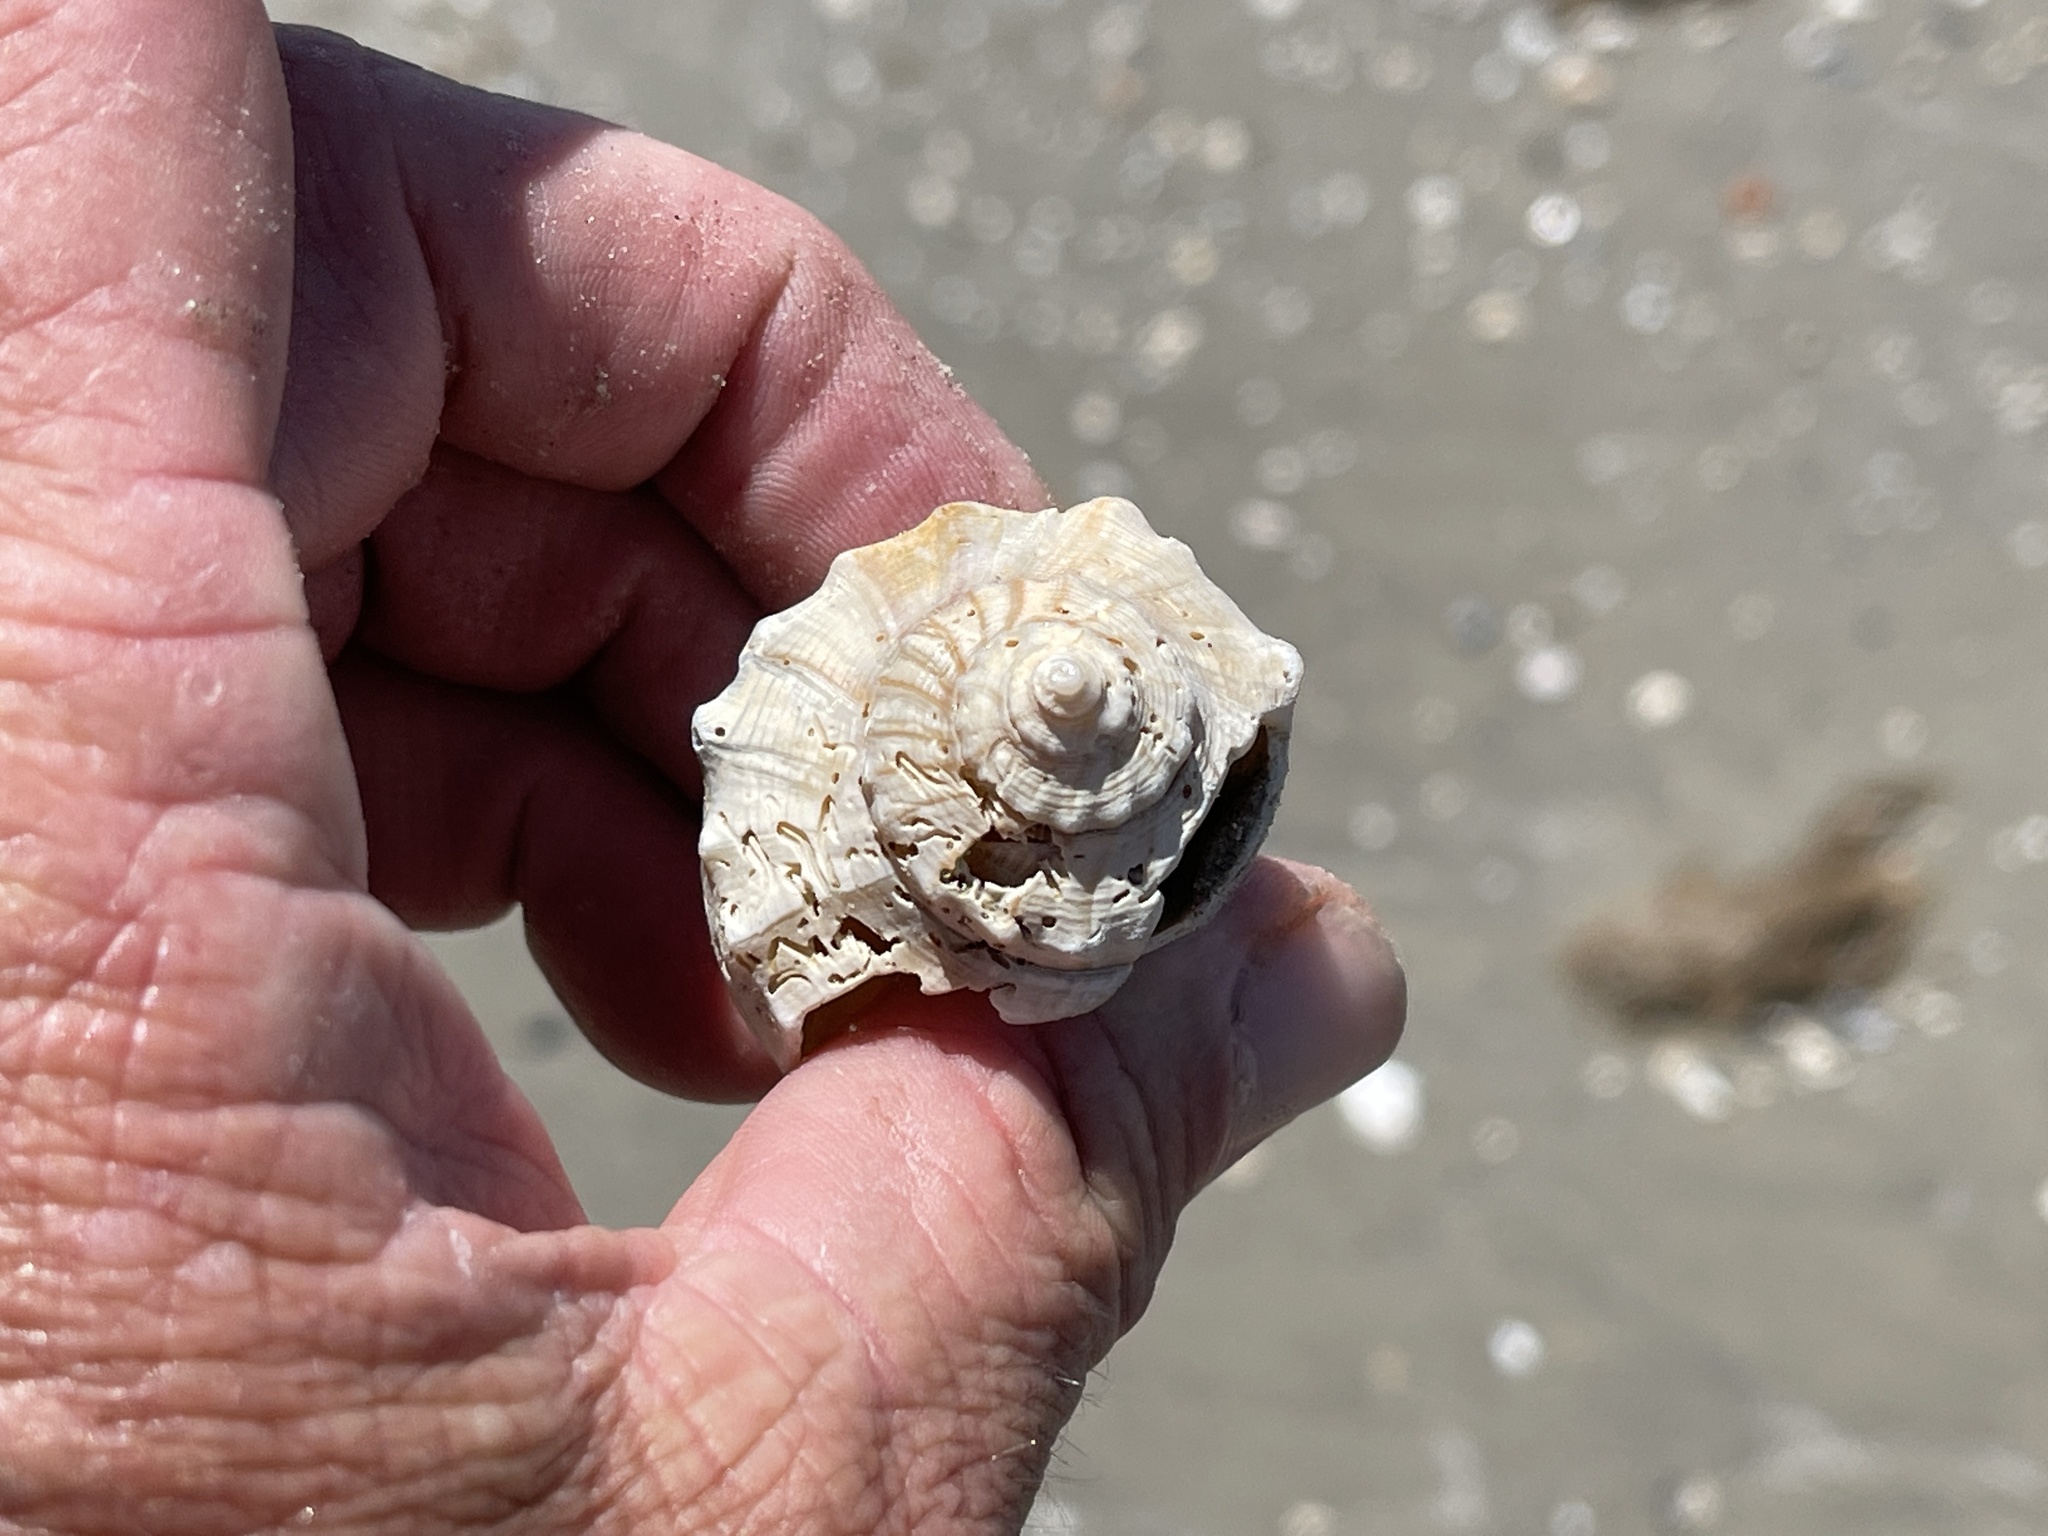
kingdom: Animalia
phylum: Mollusca
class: Gastropoda
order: Neogastropoda
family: Busyconidae
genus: Sinistrofulgur
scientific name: Sinistrofulgur pulleyi
